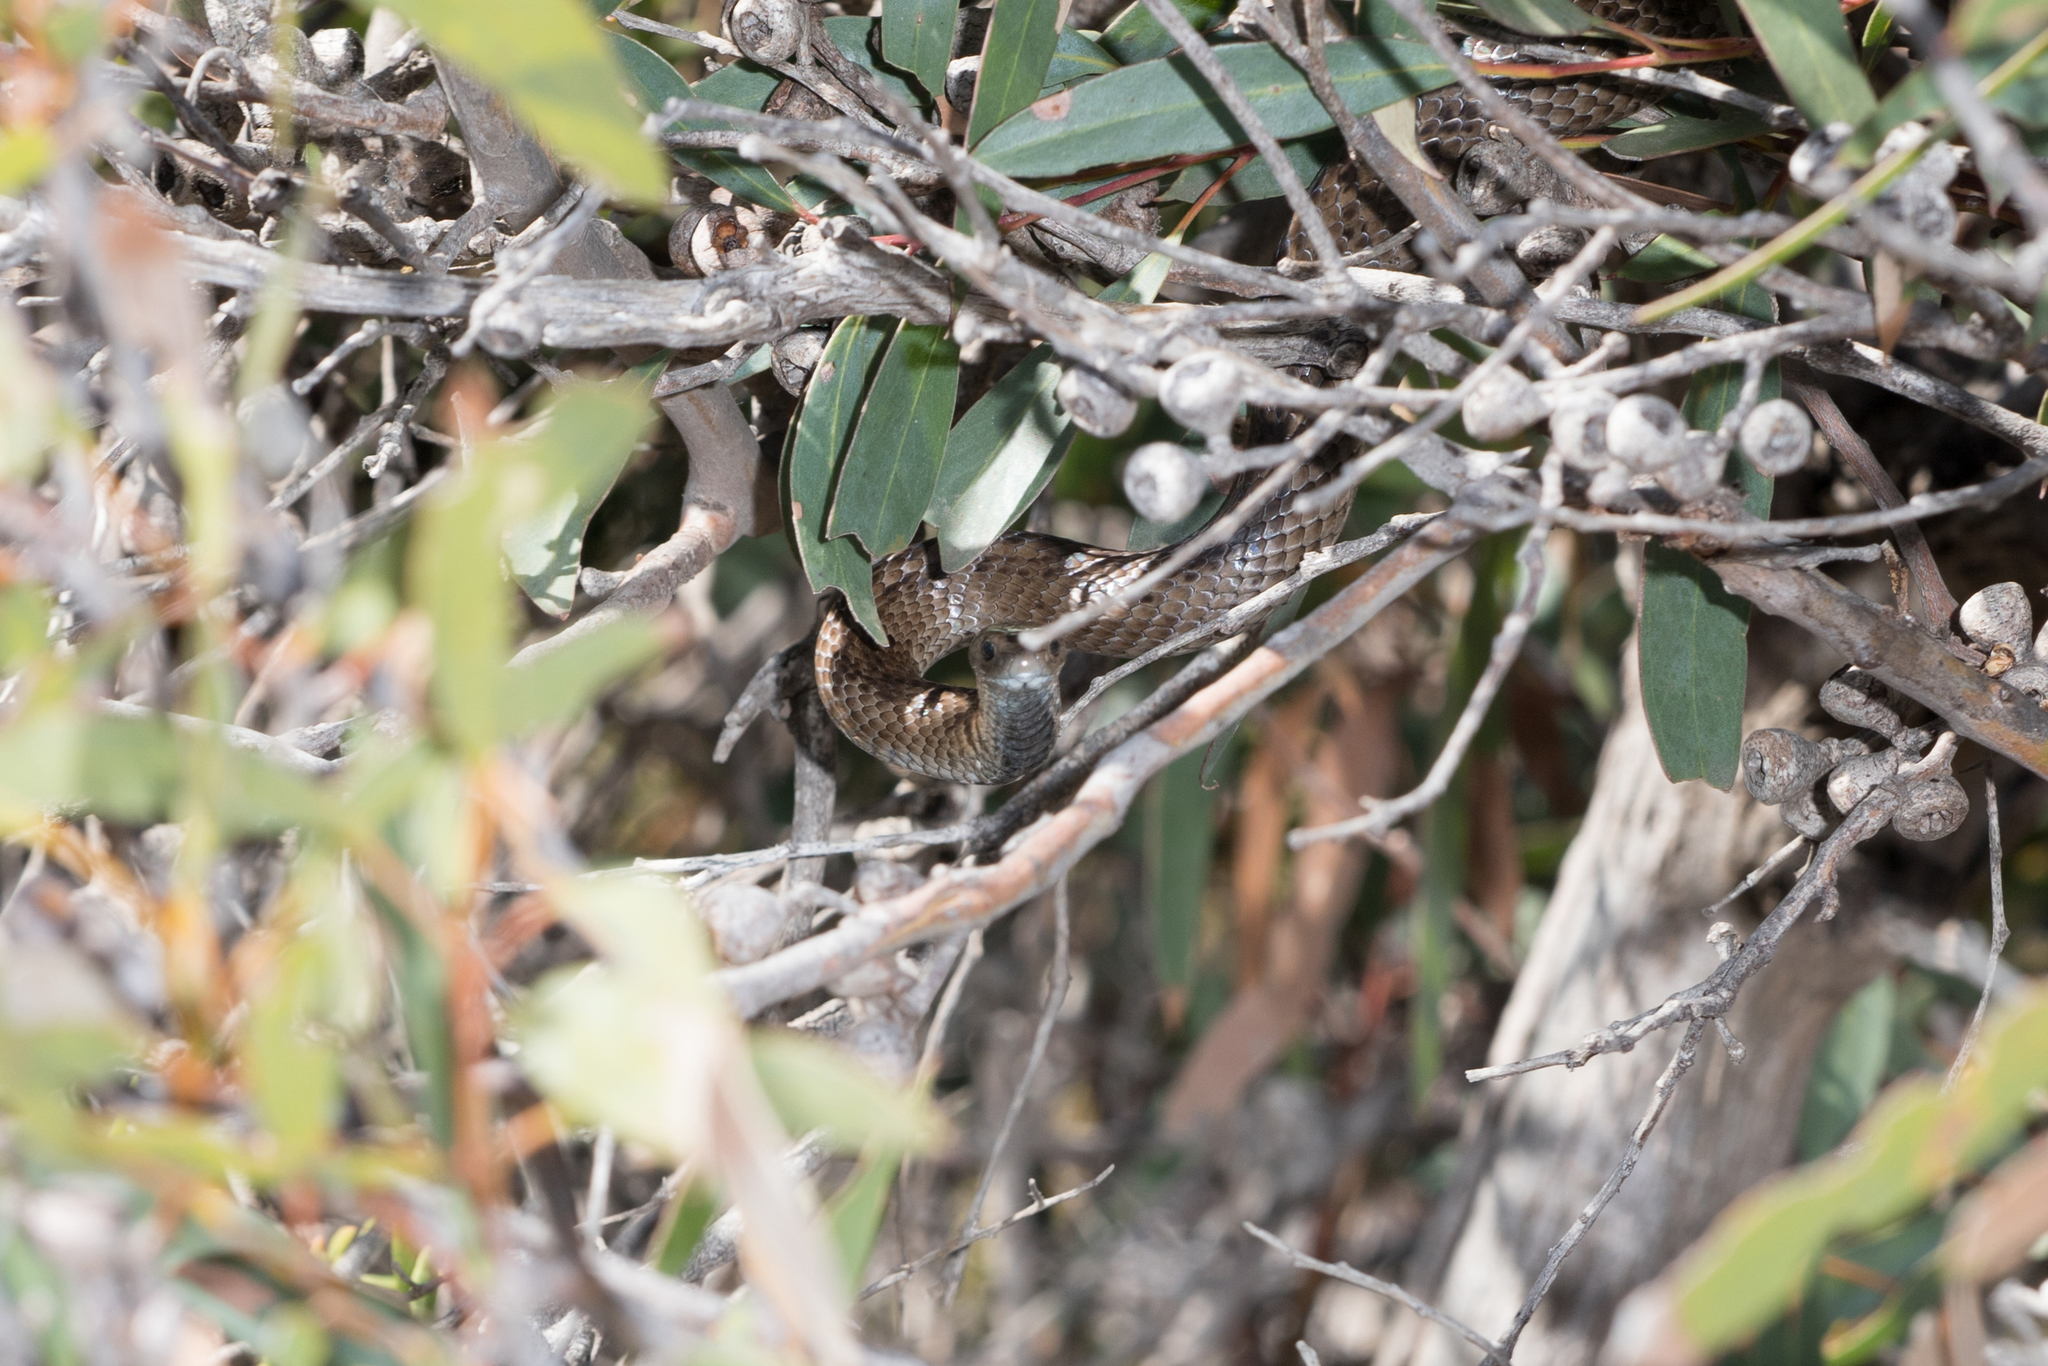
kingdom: Animalia
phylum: Chordata
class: Squamata
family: Elapidae
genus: Pseudonaja
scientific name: Pseudonaja inframacula
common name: Peninsula brown snake
